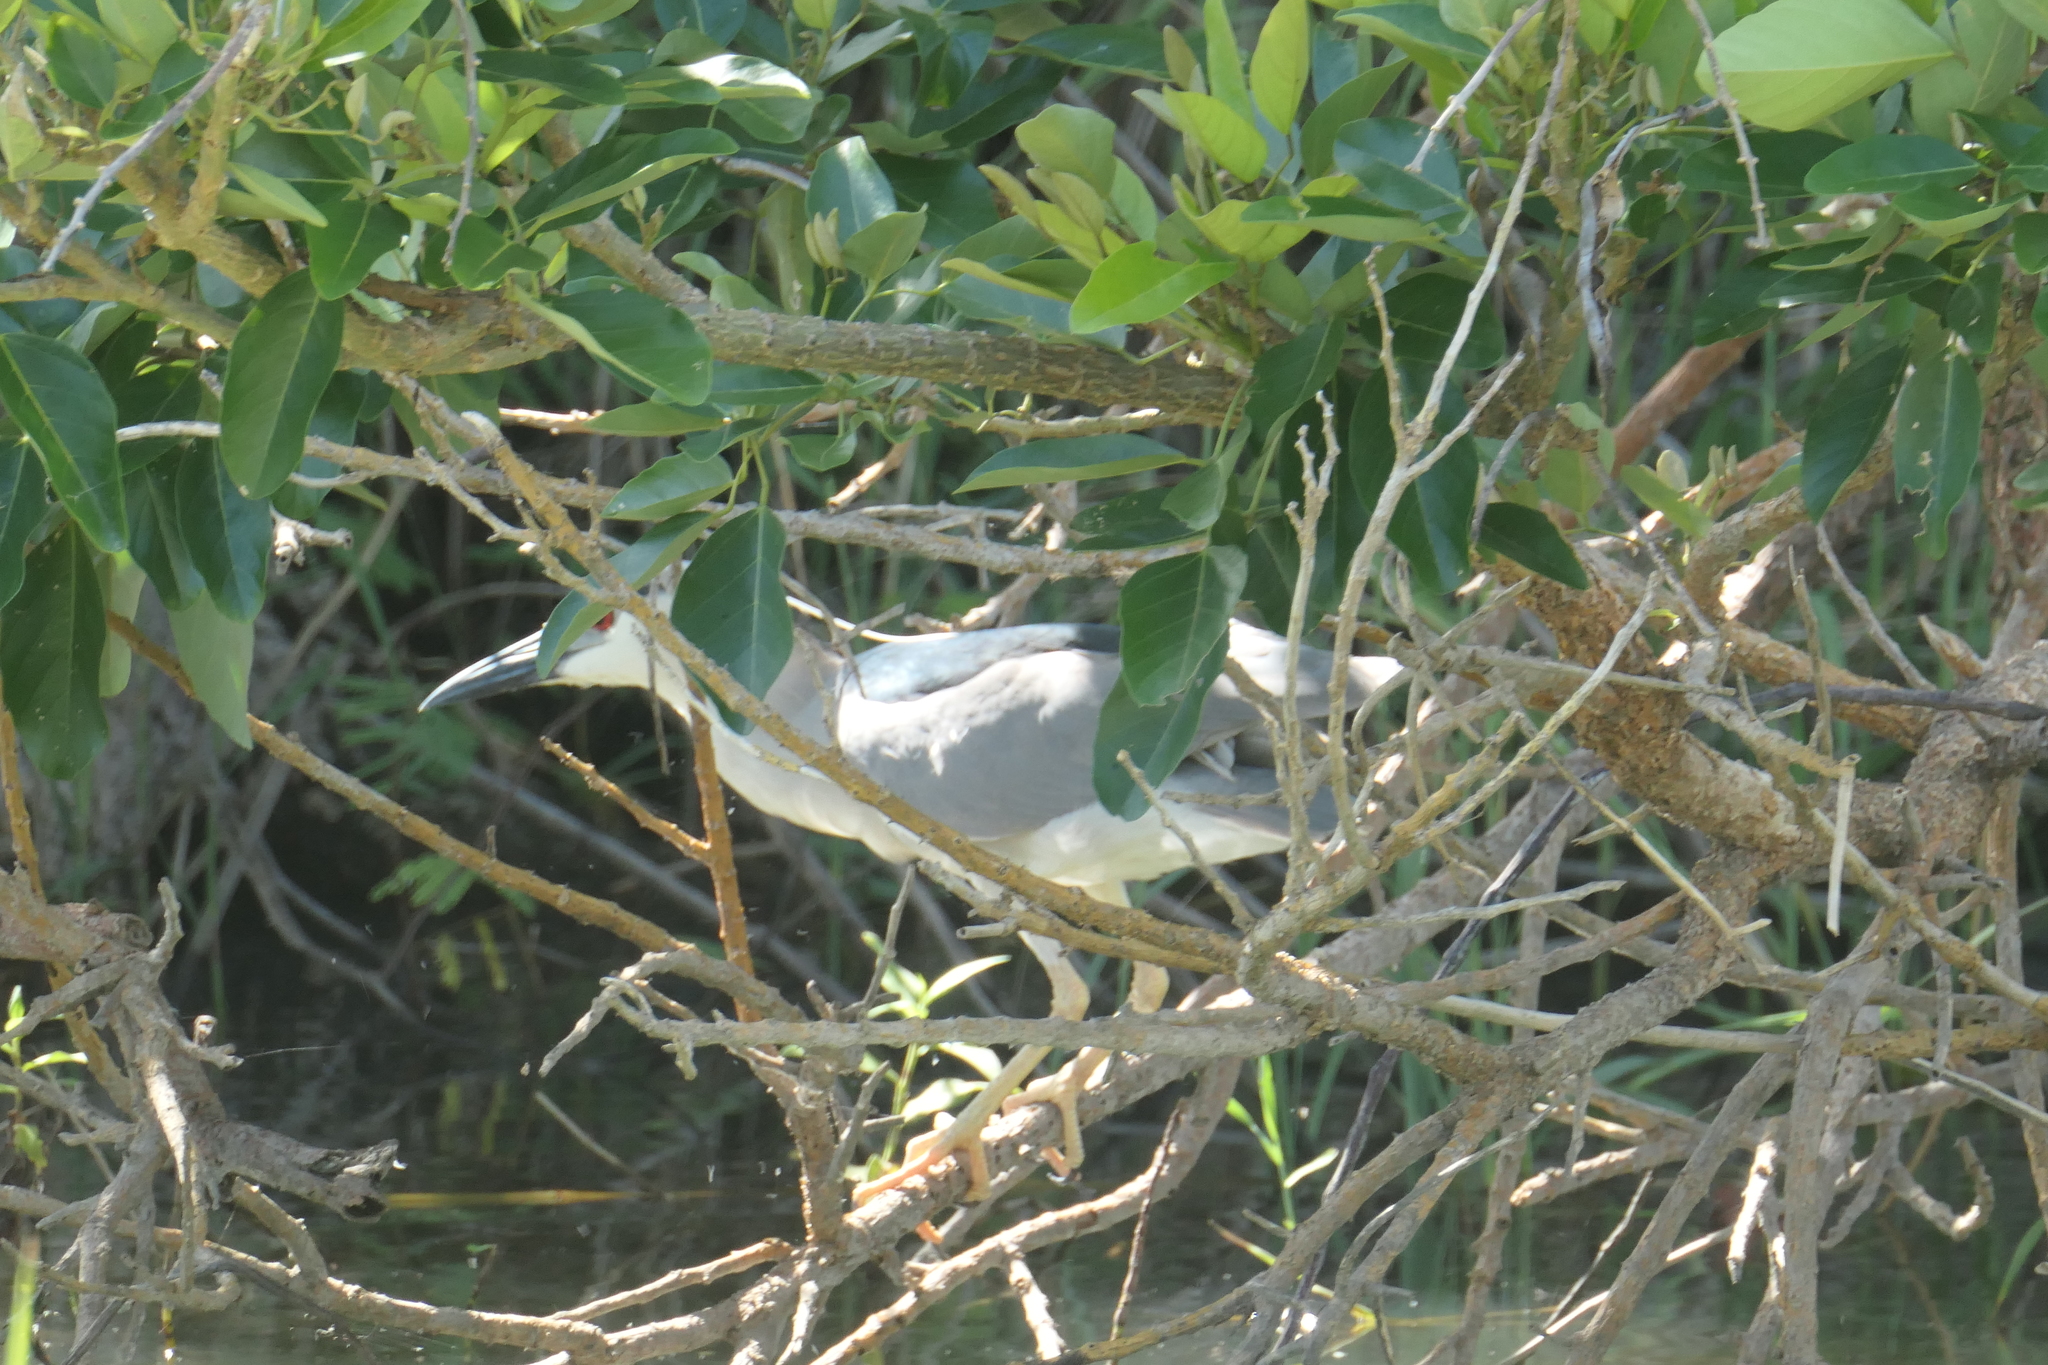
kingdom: Animalia
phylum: Chordata
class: Aves
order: Pelecaniformes
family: Ardeidae
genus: Nycticorax
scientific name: Nycticorax nycticorax
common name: Black-crowned night heron
